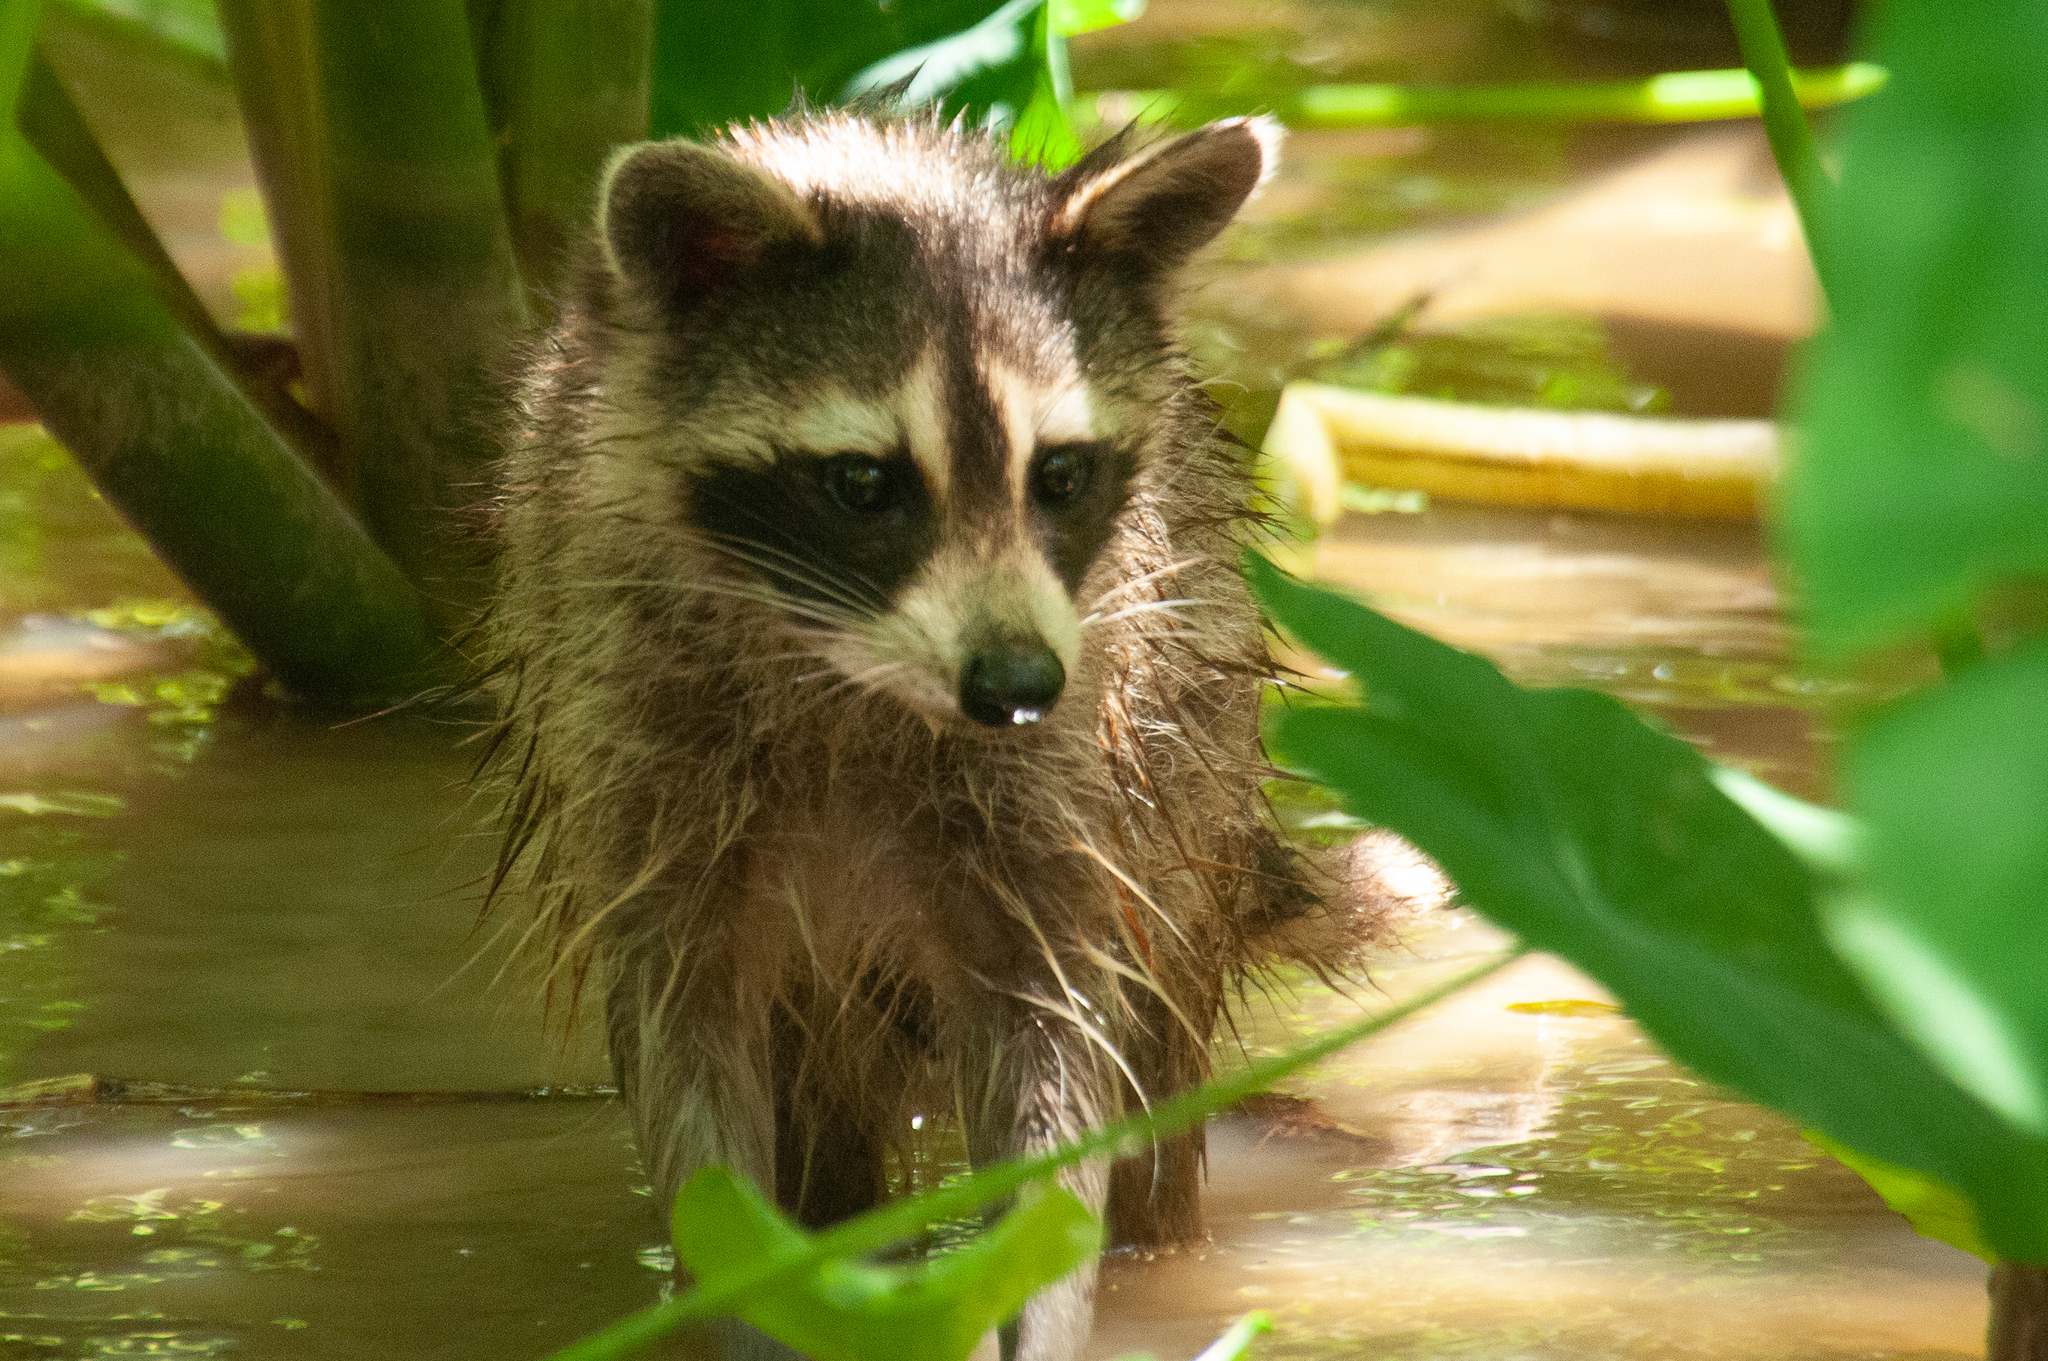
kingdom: Animalia
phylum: Chordata
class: Mammalia
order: Carnivora
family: Procyonidae
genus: Procyon
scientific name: Procyon lotor
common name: Raccoon
